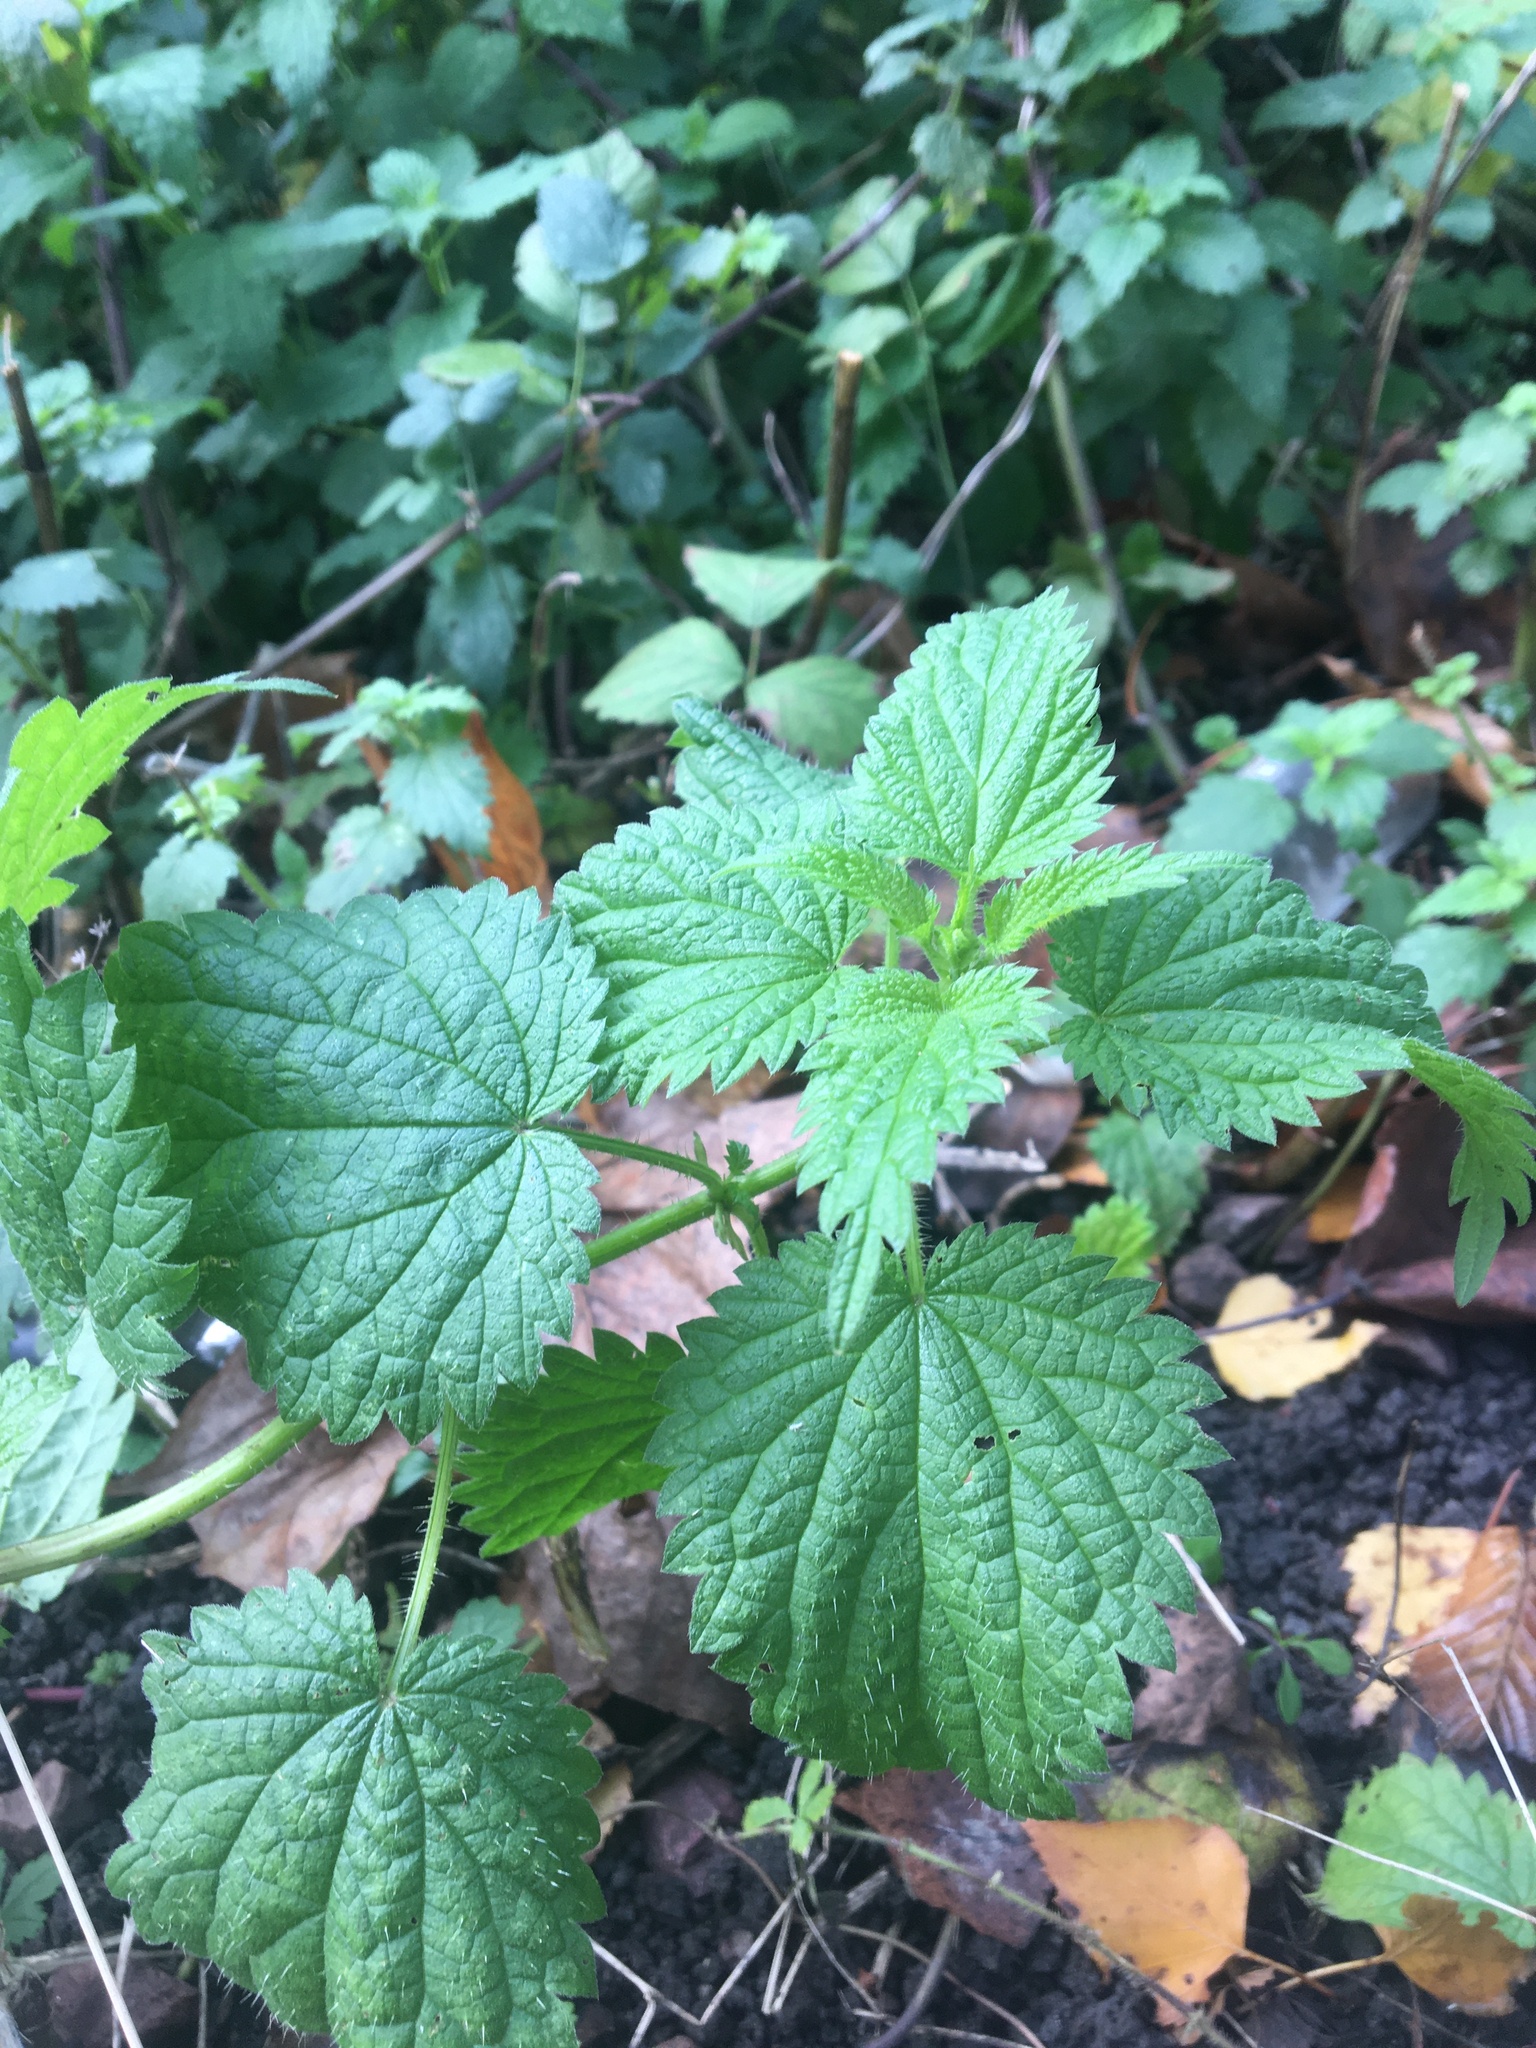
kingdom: Plantae
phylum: Tracheophyta
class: Magnoliopsida
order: Rosales
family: Urticaceae
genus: Urtica
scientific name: Urtica dioica
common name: Common nettle
